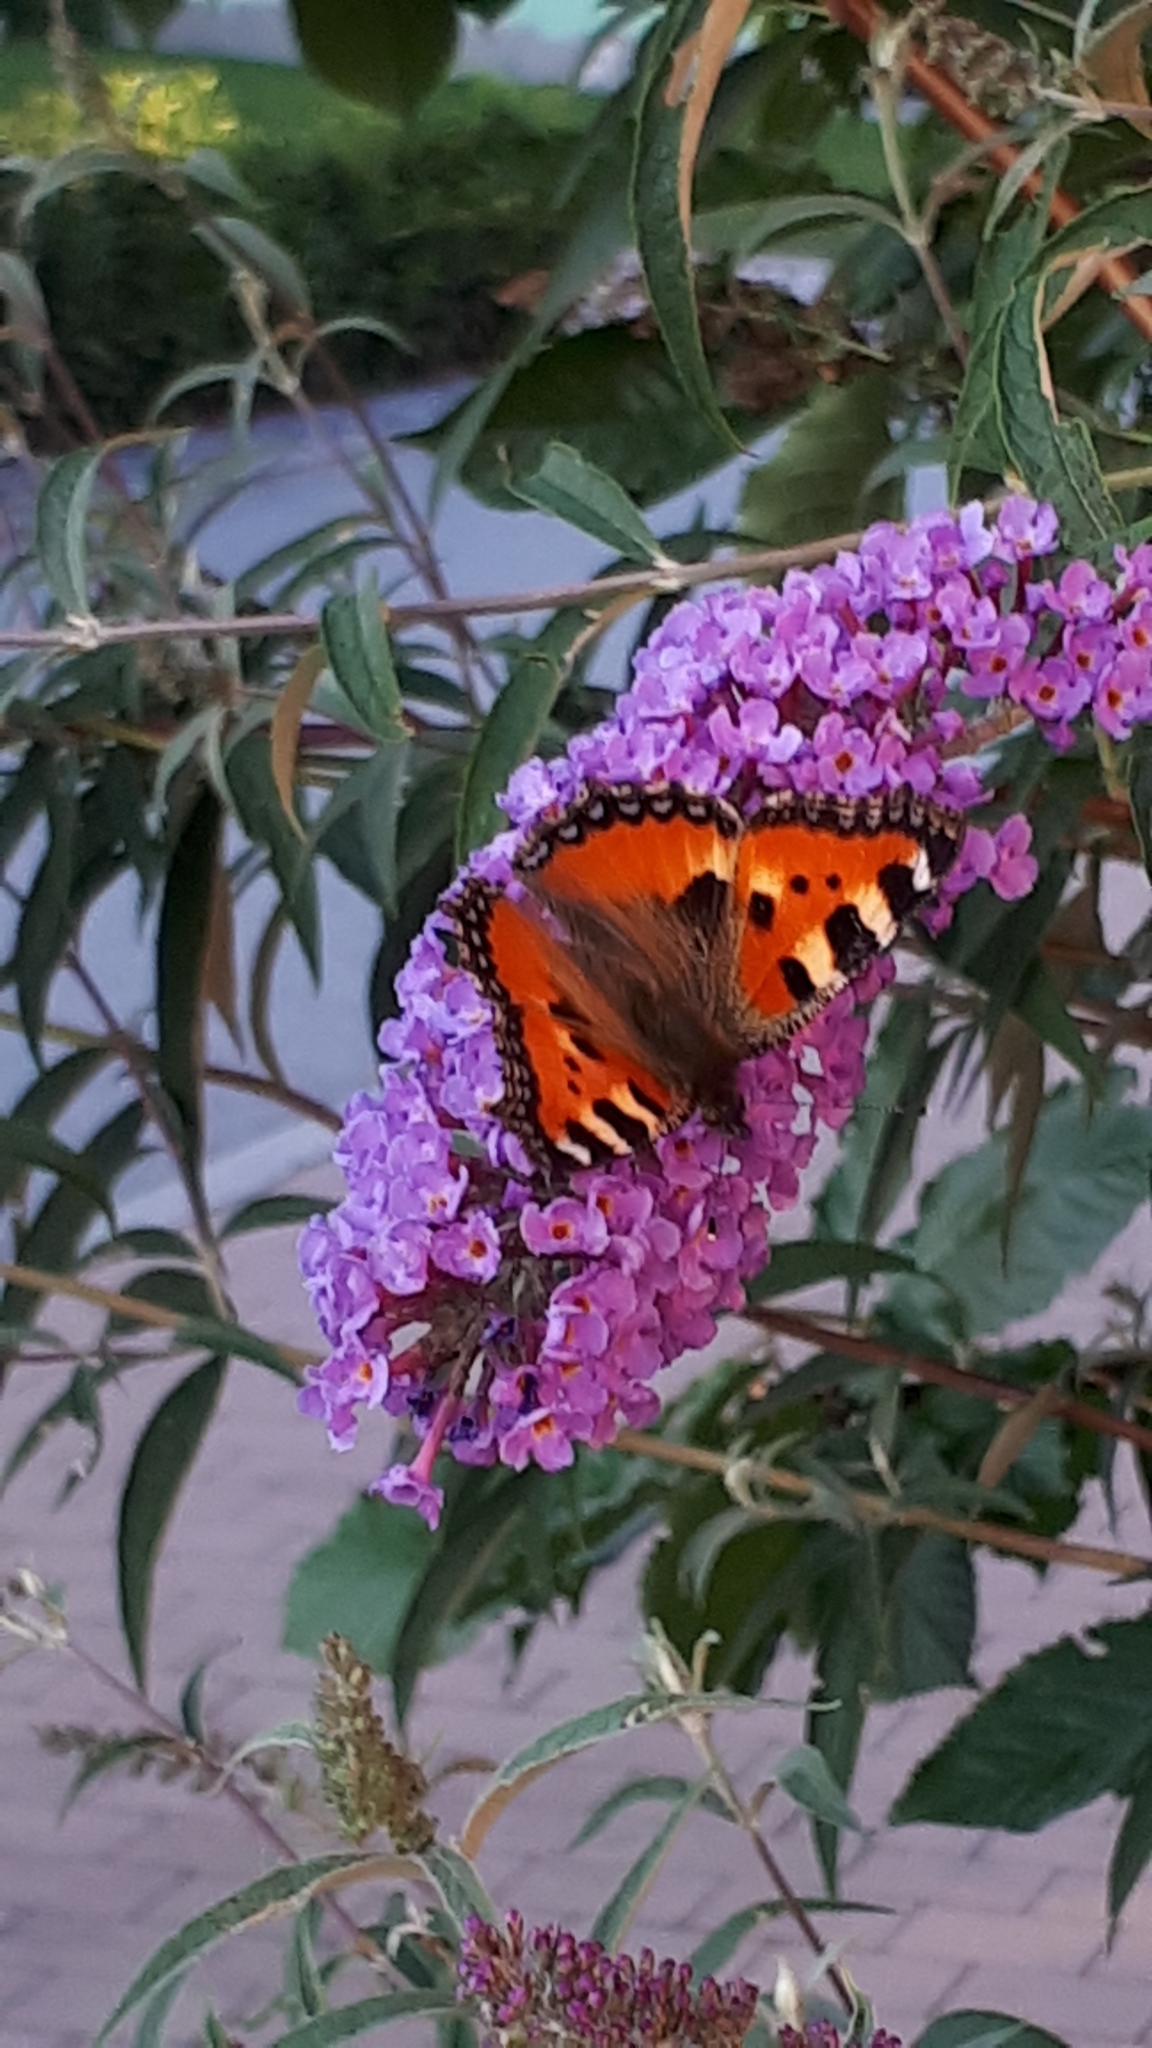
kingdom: Animalia
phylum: Arthropoda
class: Insecta
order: Lepidoptera
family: Nymphalidae
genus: Aglais
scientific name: Aglais urticae
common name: Small tortoiseshell
